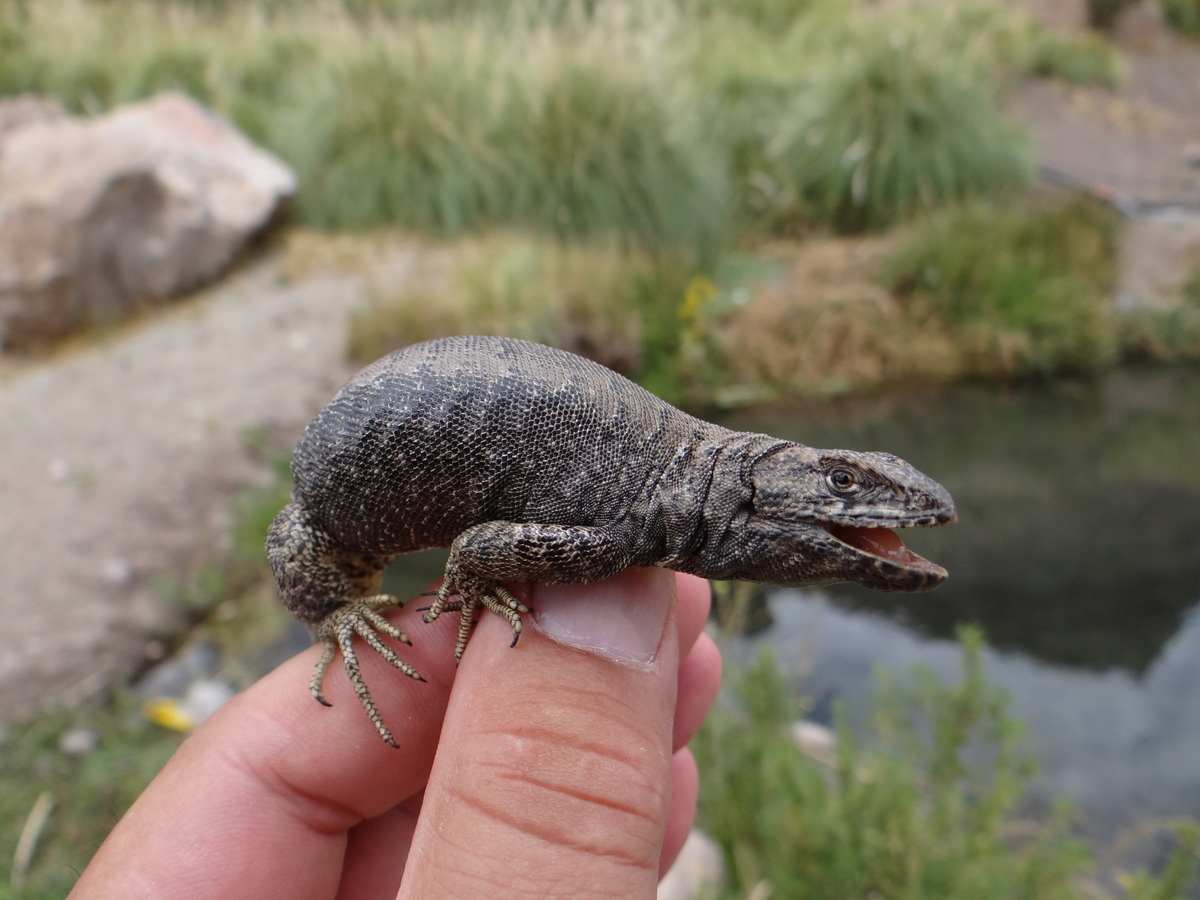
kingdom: Animalia
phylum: Chordata
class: Squamata
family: Liolaemidae
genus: Liolaemus
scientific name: Liolaemus buergeri
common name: Buerger's tree iguana
